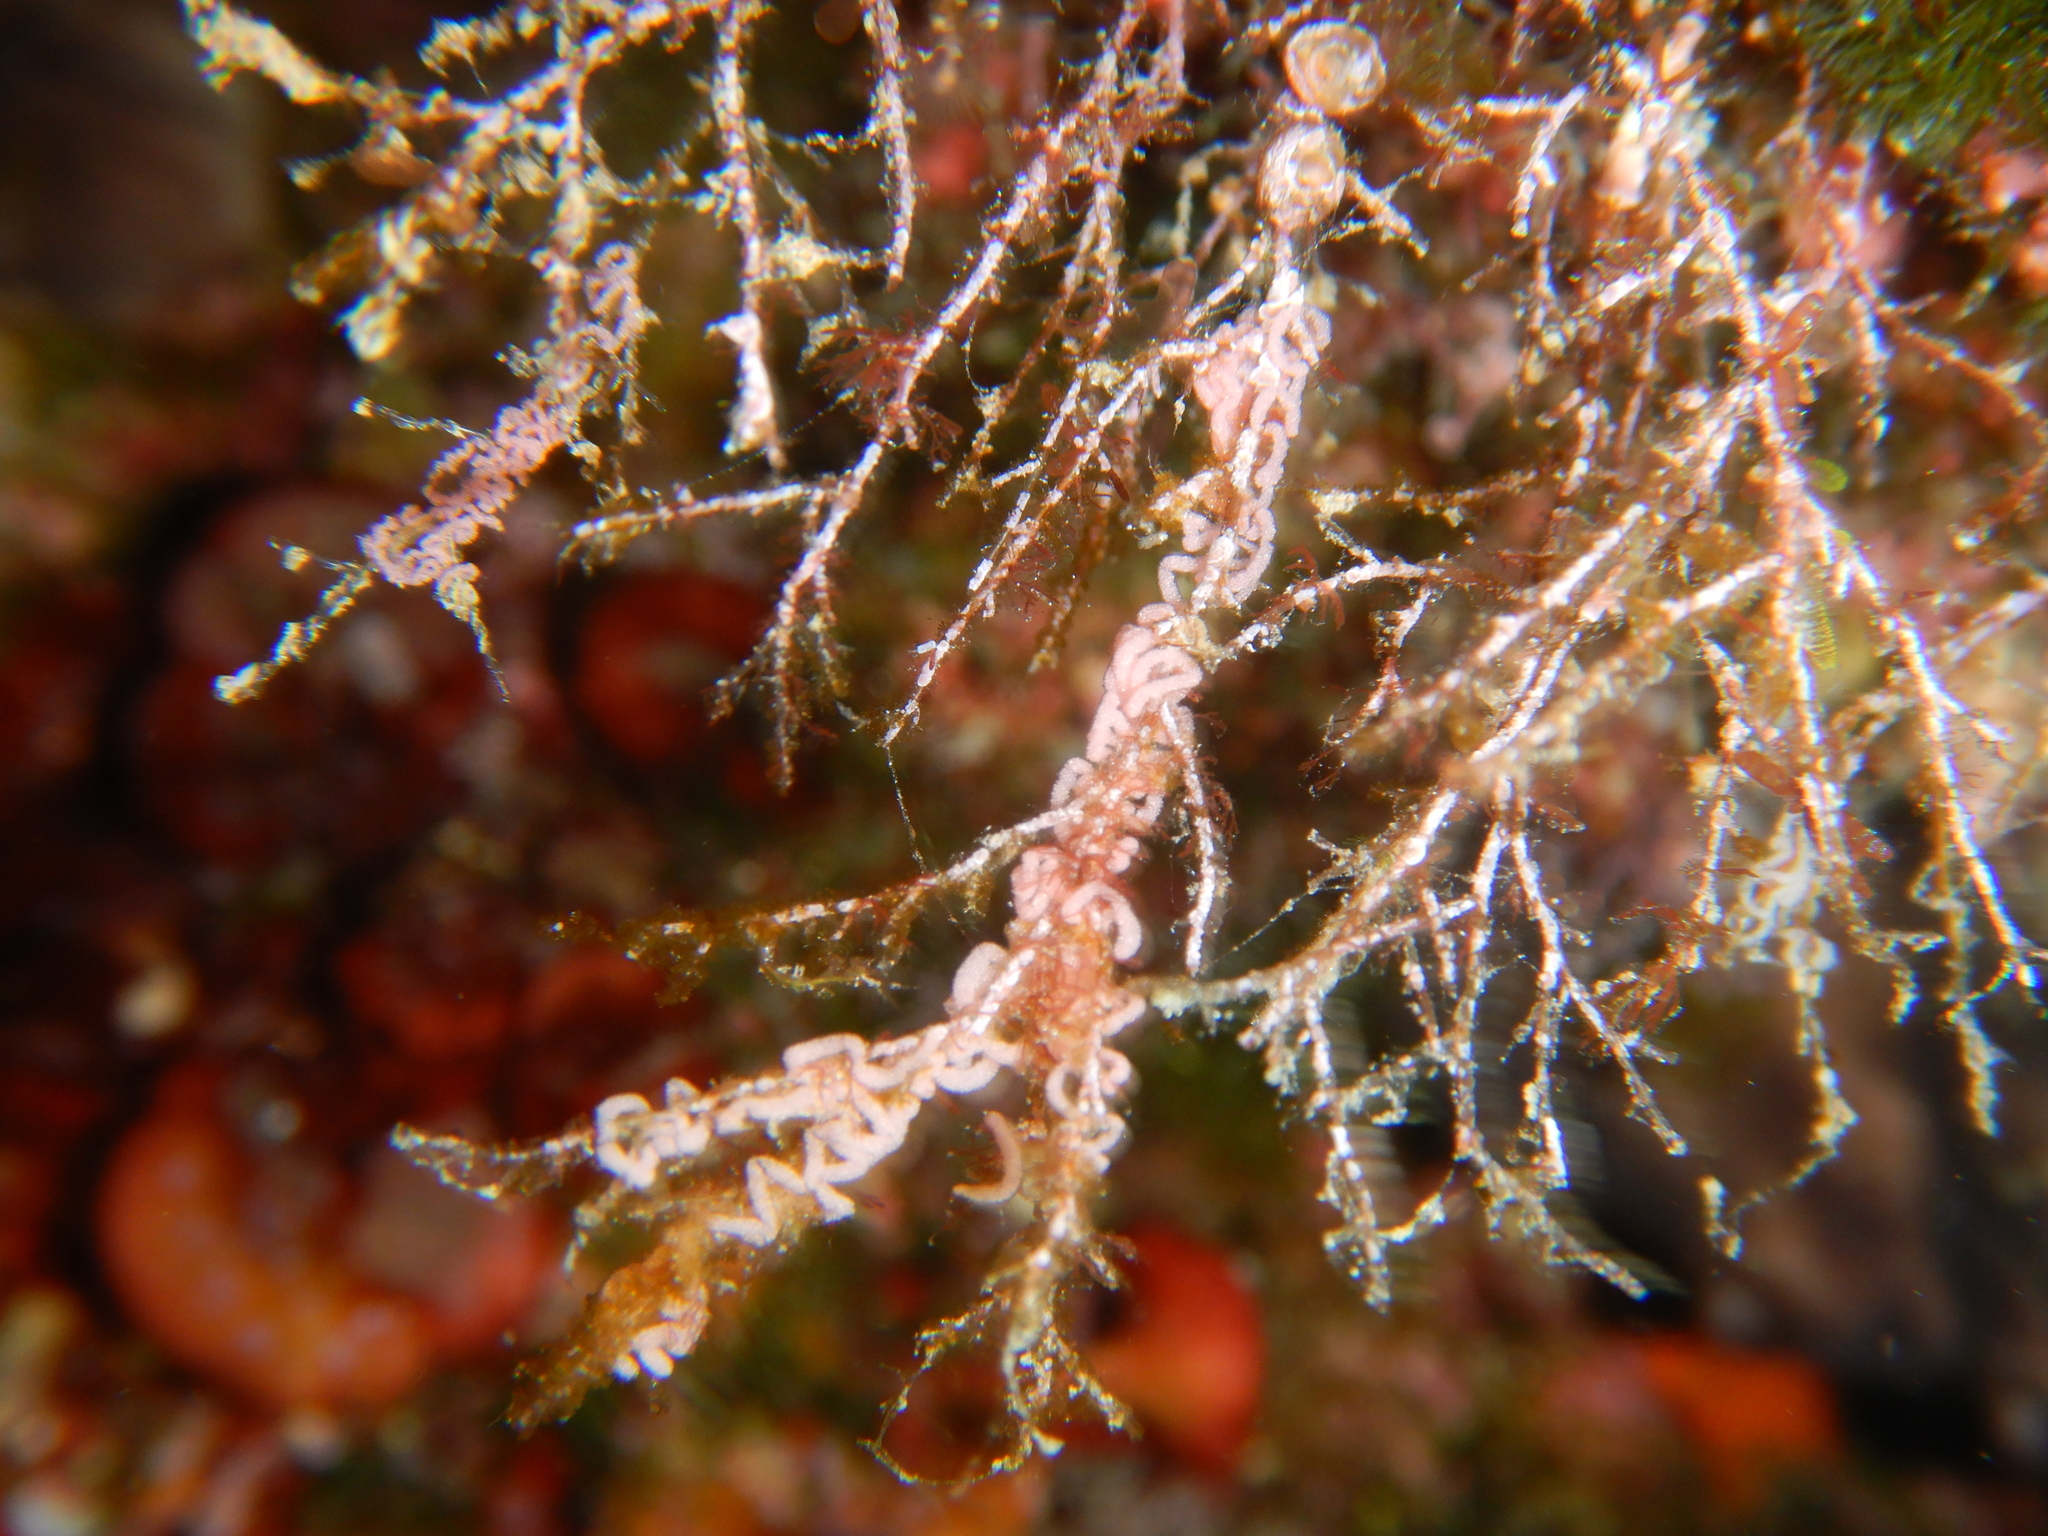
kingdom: Animalia
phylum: Mollusca
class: Gastropoda
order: Nudibranchia
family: Facelinidae
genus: Cratena
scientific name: Cratena peregrina
